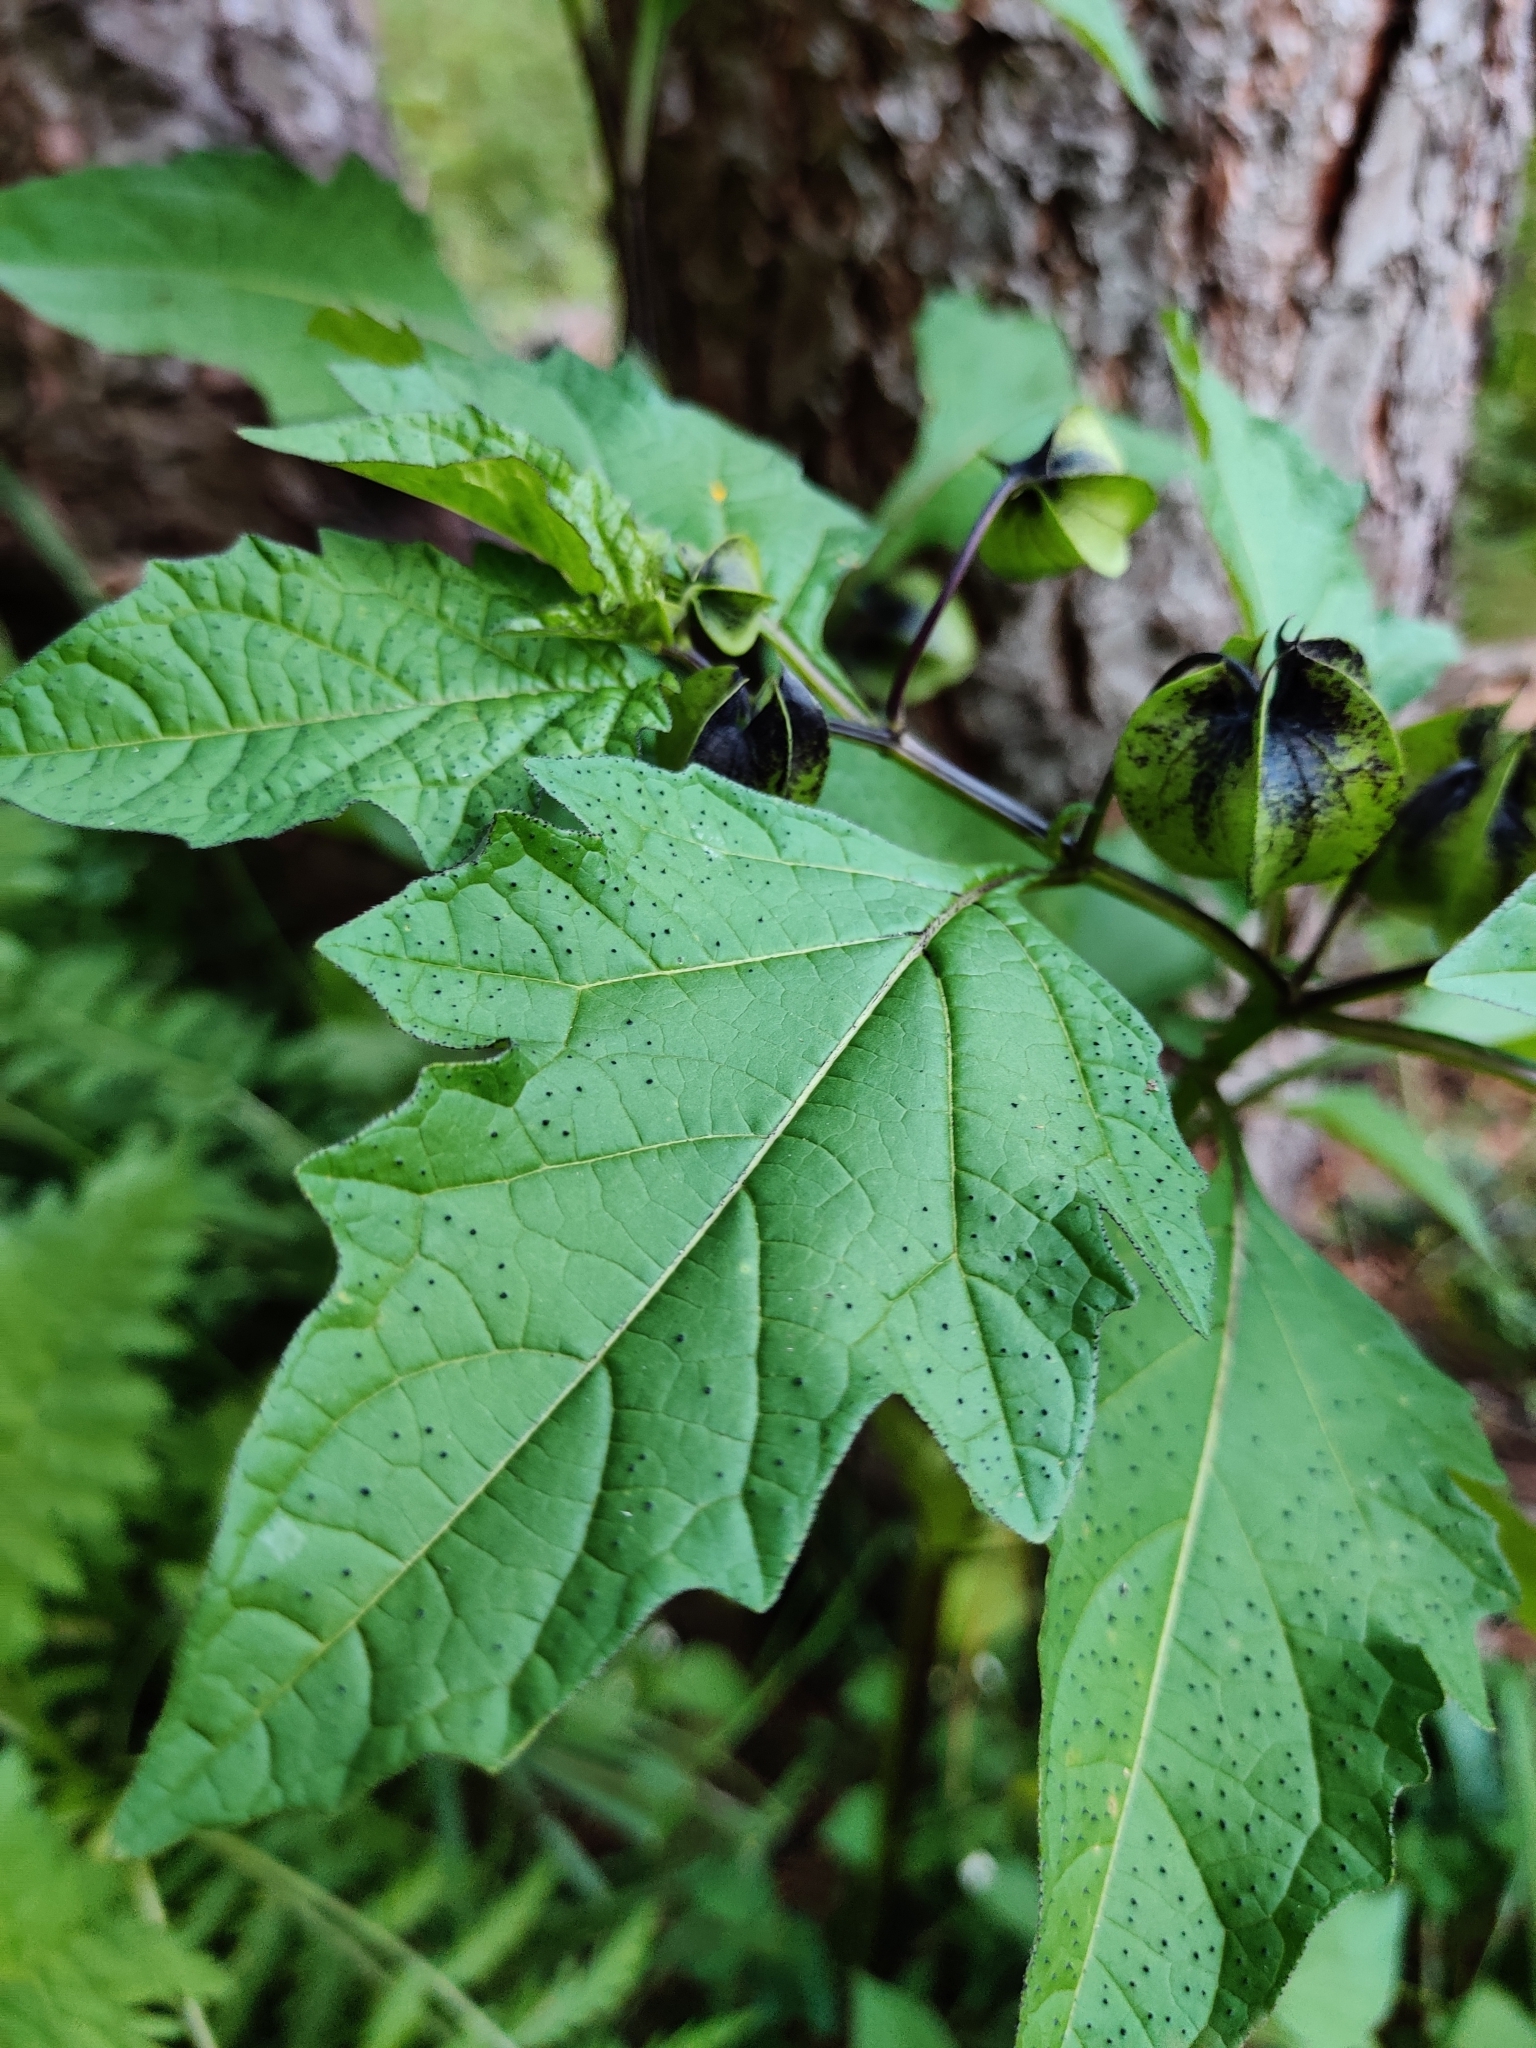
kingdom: Plantae
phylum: Tracheophyta
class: Magnoliopsida
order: Solanales
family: Solanaceae
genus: Nicandra
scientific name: Nicandra physalodes
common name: Apple-of-peru
